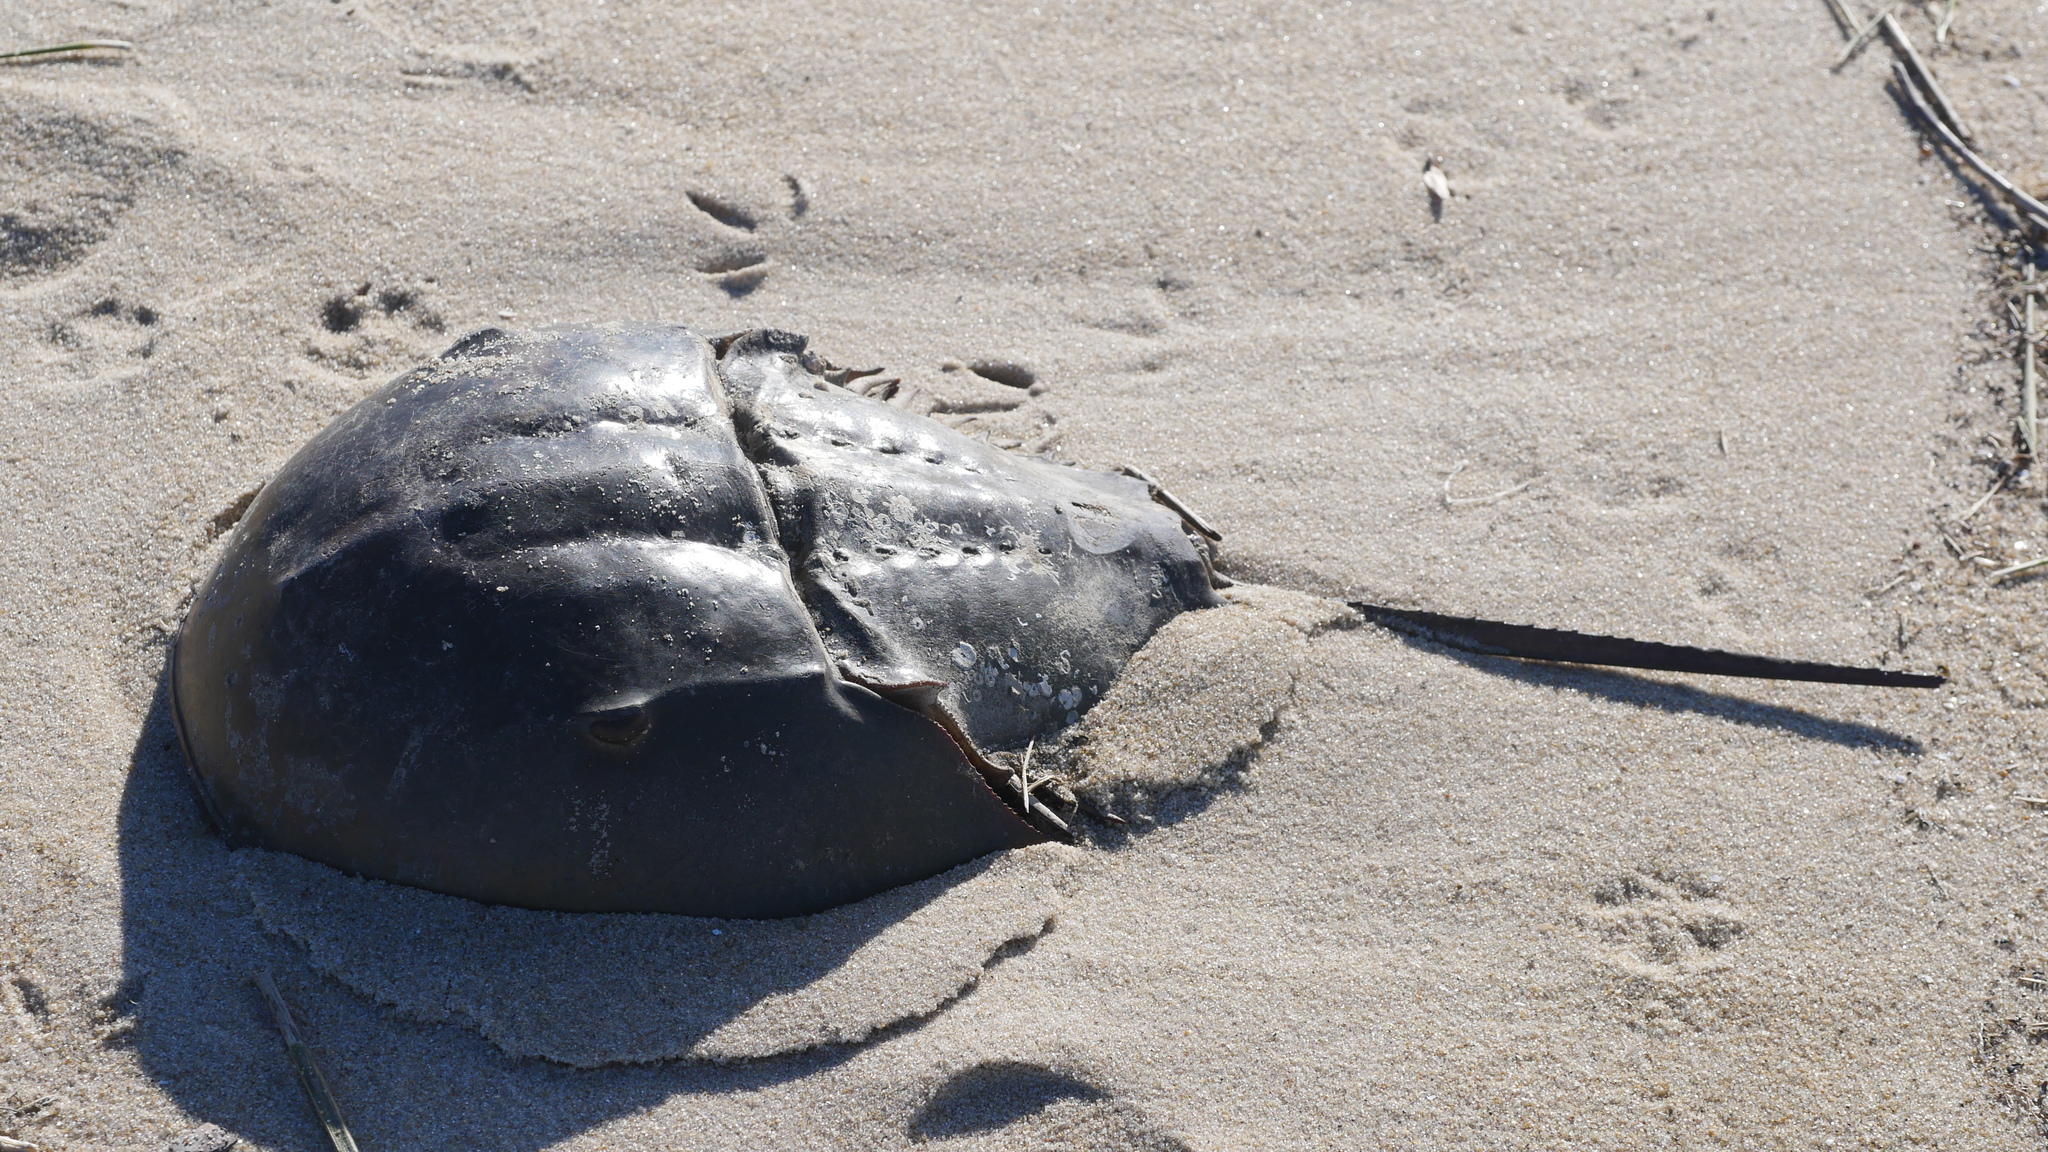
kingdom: Animalia
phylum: Arthropoda
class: Merostomata
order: Xiphosurida
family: Limulidae
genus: Limulus
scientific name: Limulus polyphemus
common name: Horseshoe crab
